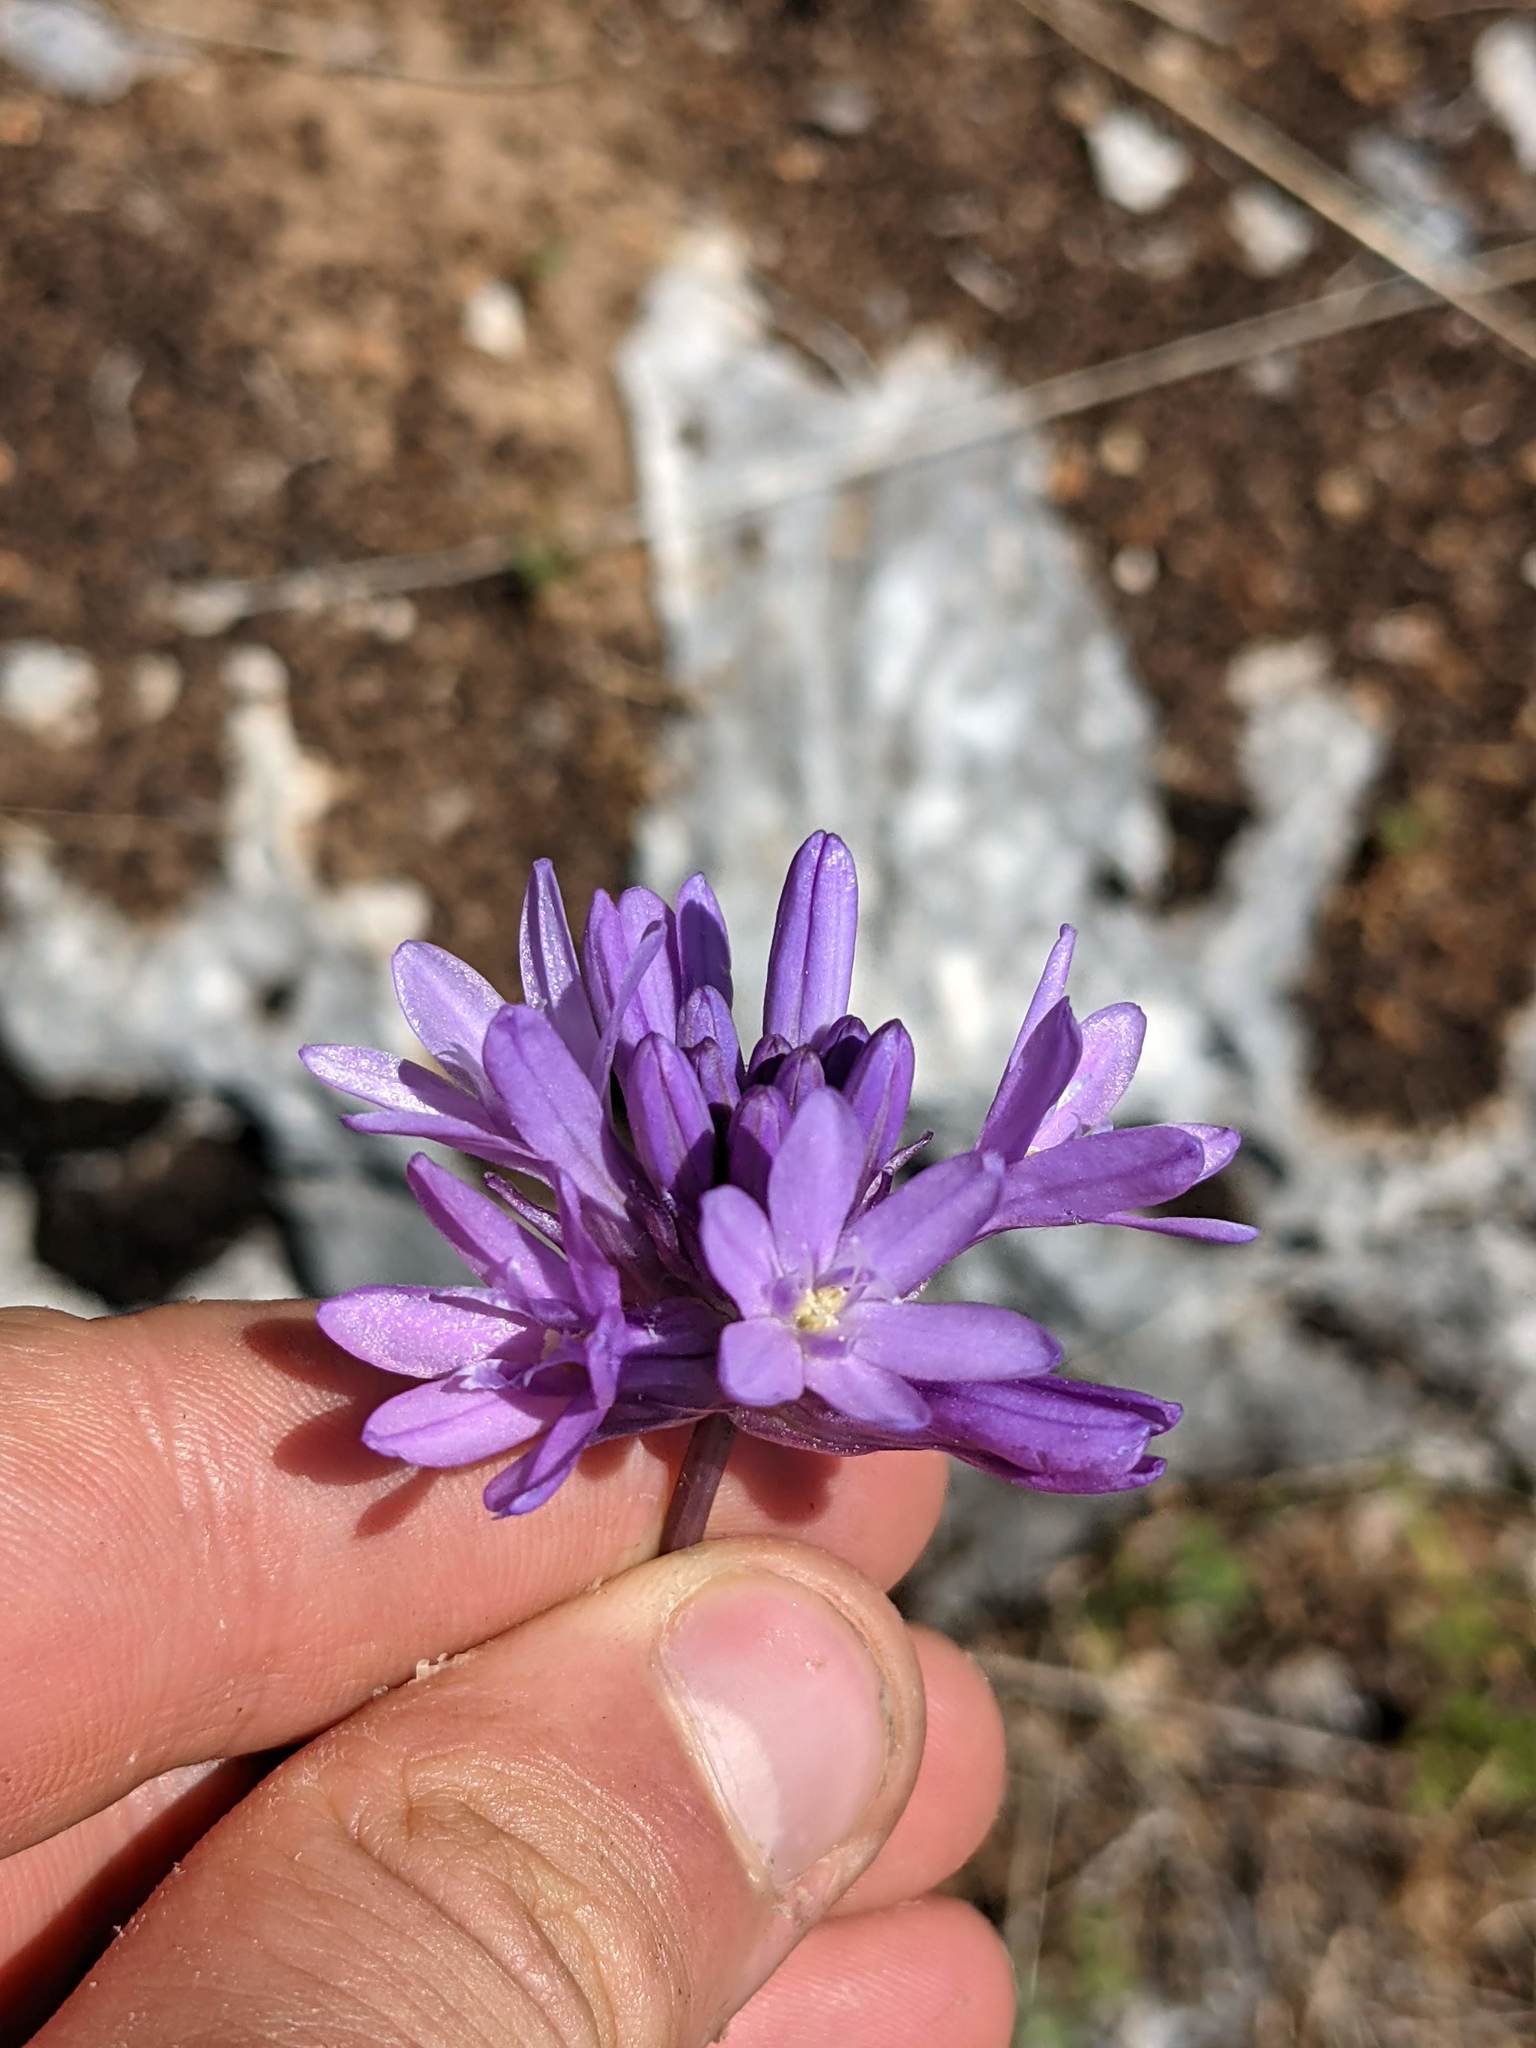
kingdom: Plantae
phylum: Tracheophyta
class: Liliopsida
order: Asparagales
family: Asparagaceae
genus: Dichelostemma
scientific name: Dichelostemma congestum
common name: Fork-tooth ookow
